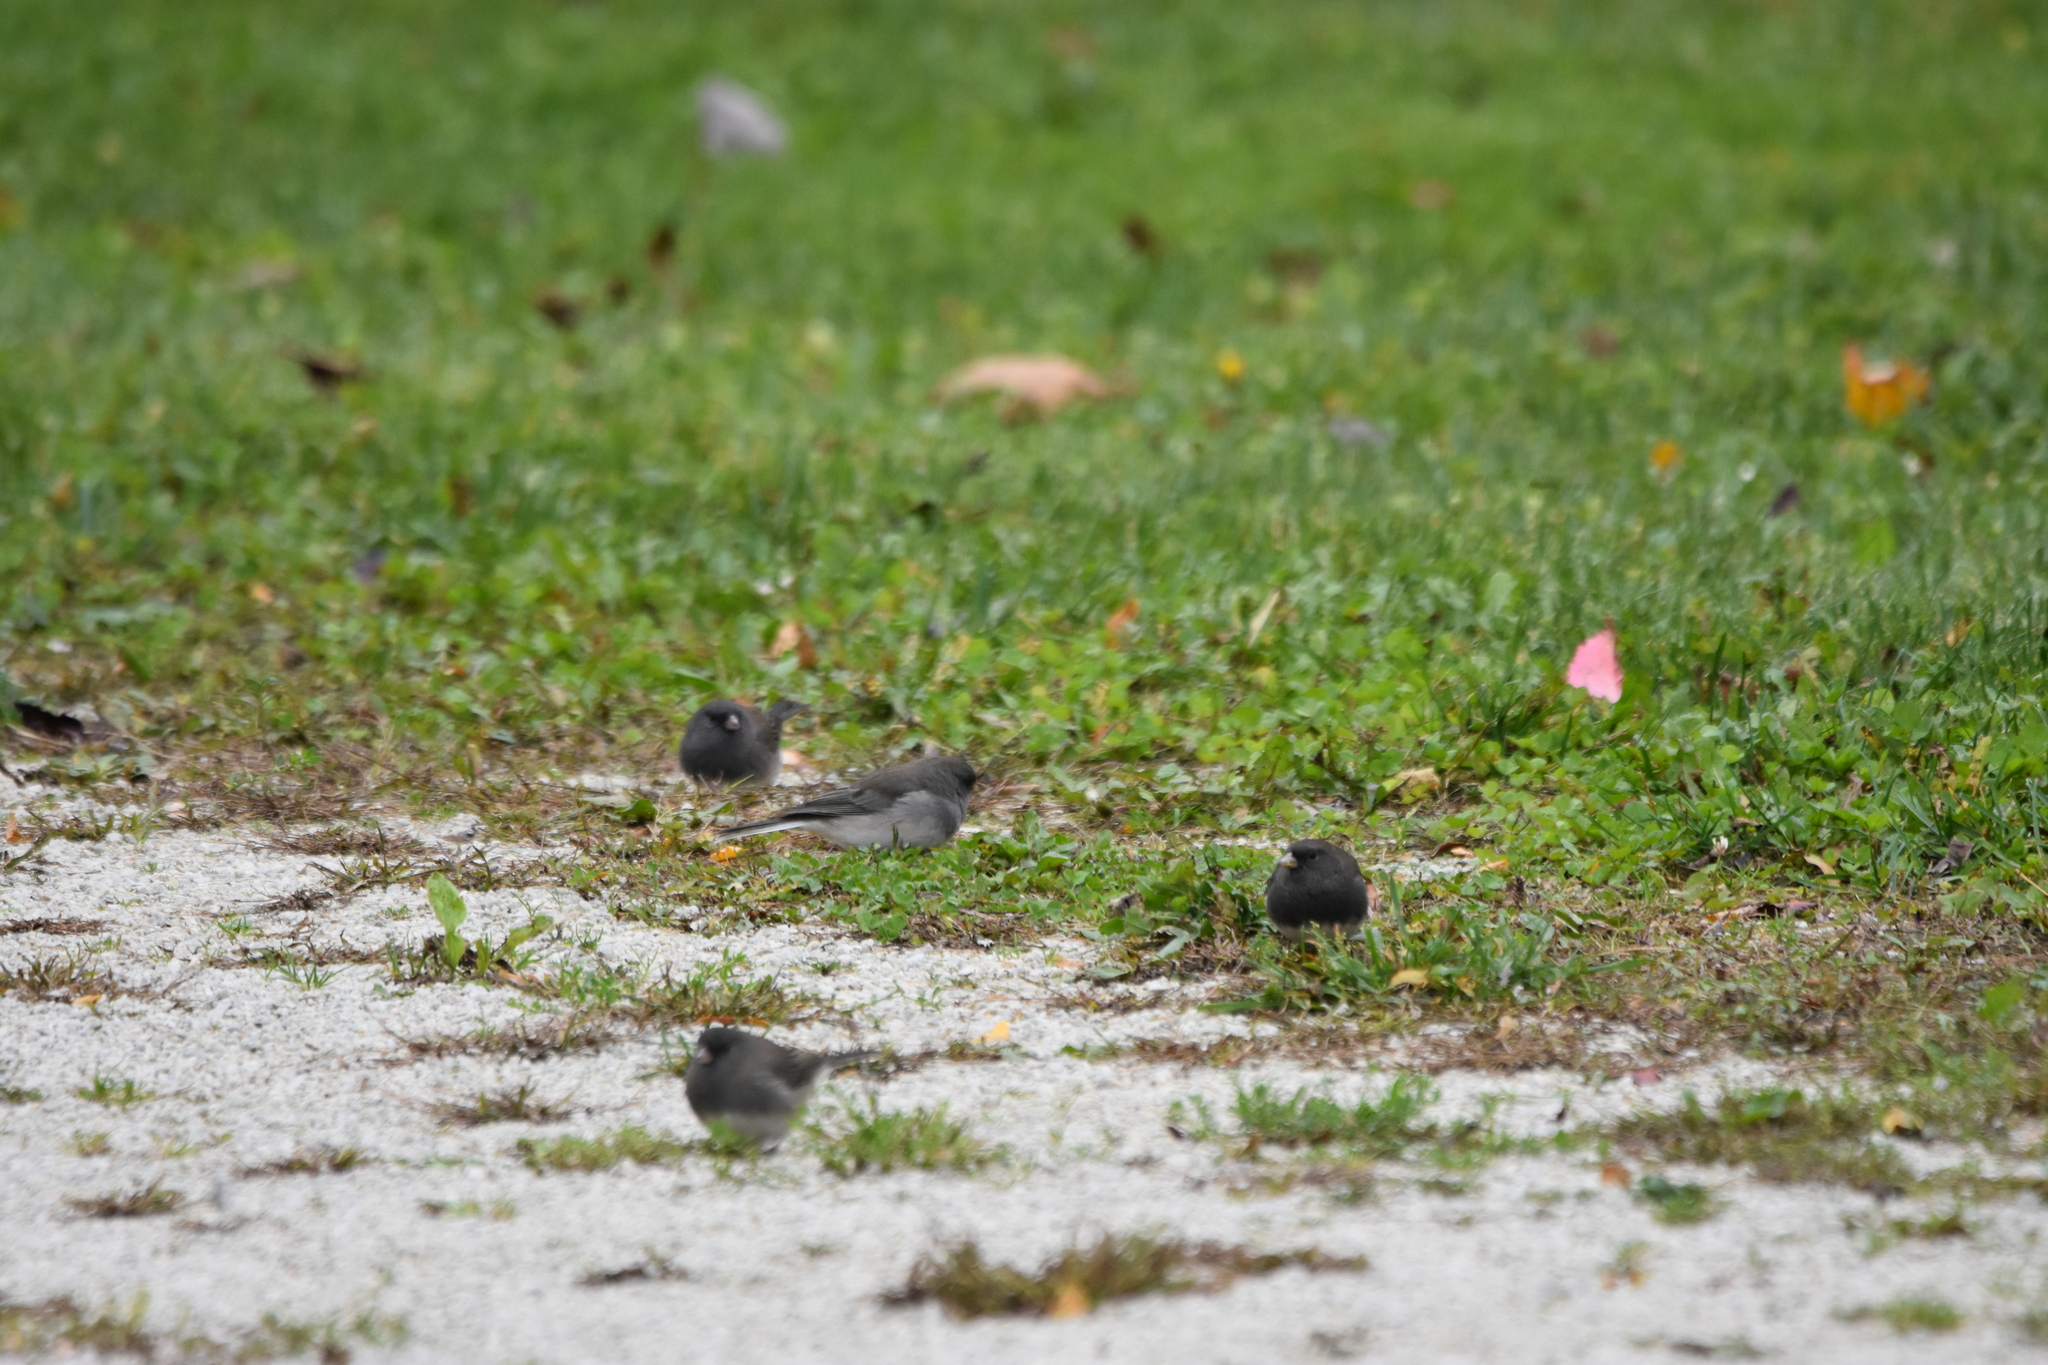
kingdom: Animalia
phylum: Chordata
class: Aves
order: Passeriformes
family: Passerellidae
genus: Junco
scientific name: Junco hyemalis
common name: Dark-eyed junco
